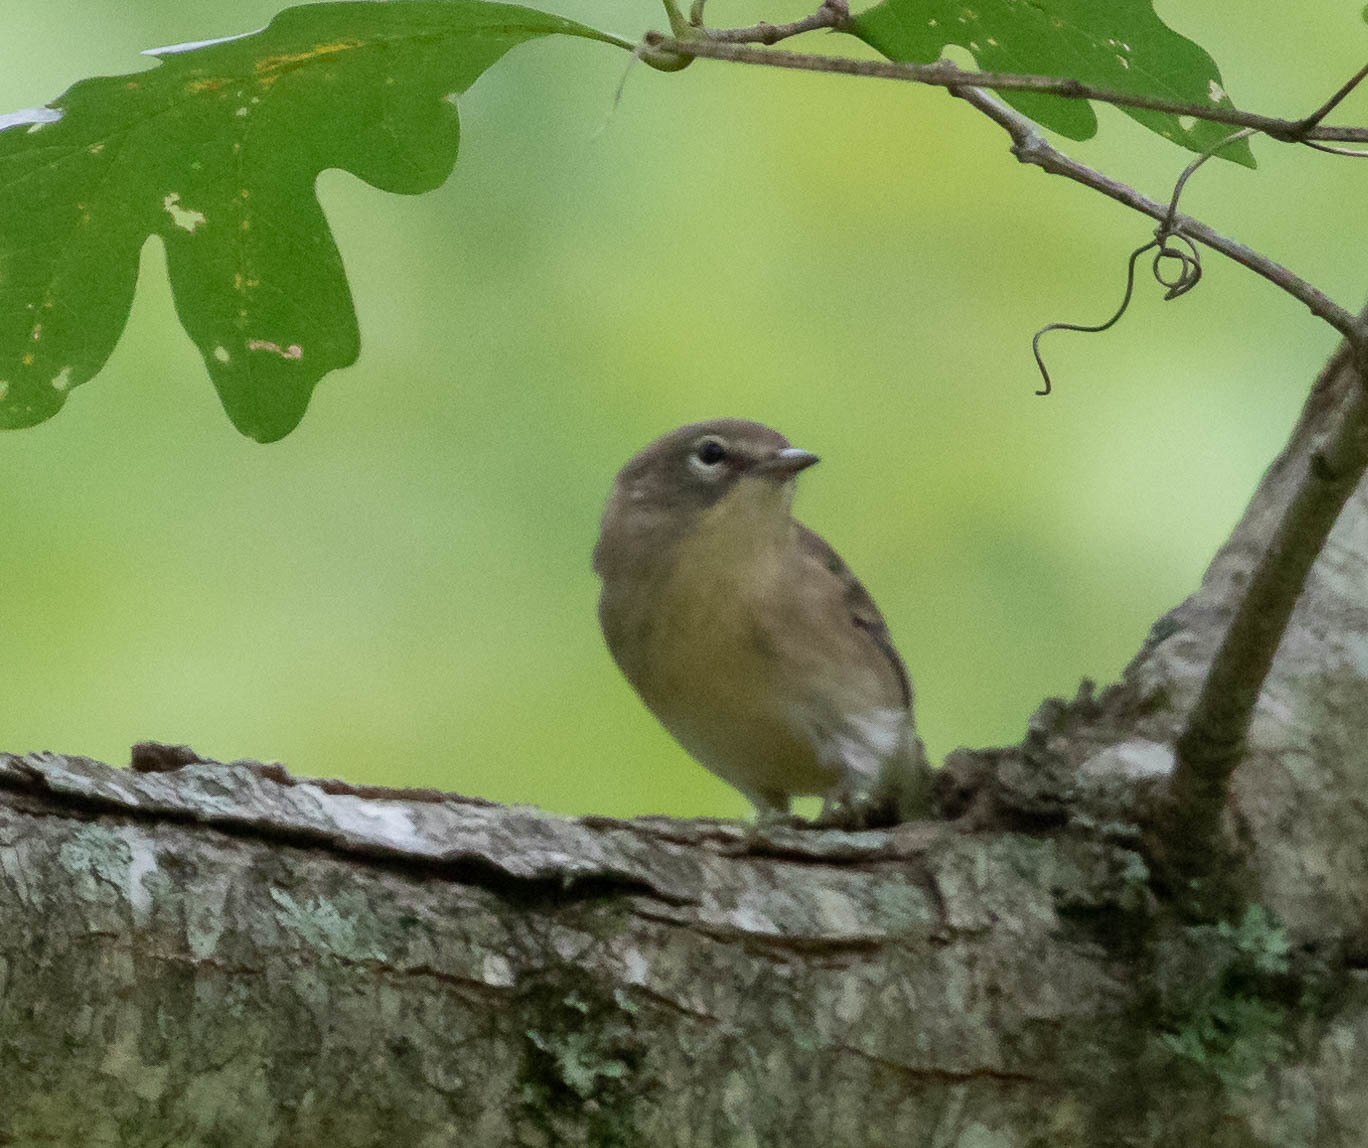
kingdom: Animalia
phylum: Chordata
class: Aves
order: Passeriformes
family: Parulidae
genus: Setophaga
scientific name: Setophaga pinus
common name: Pine warbler
